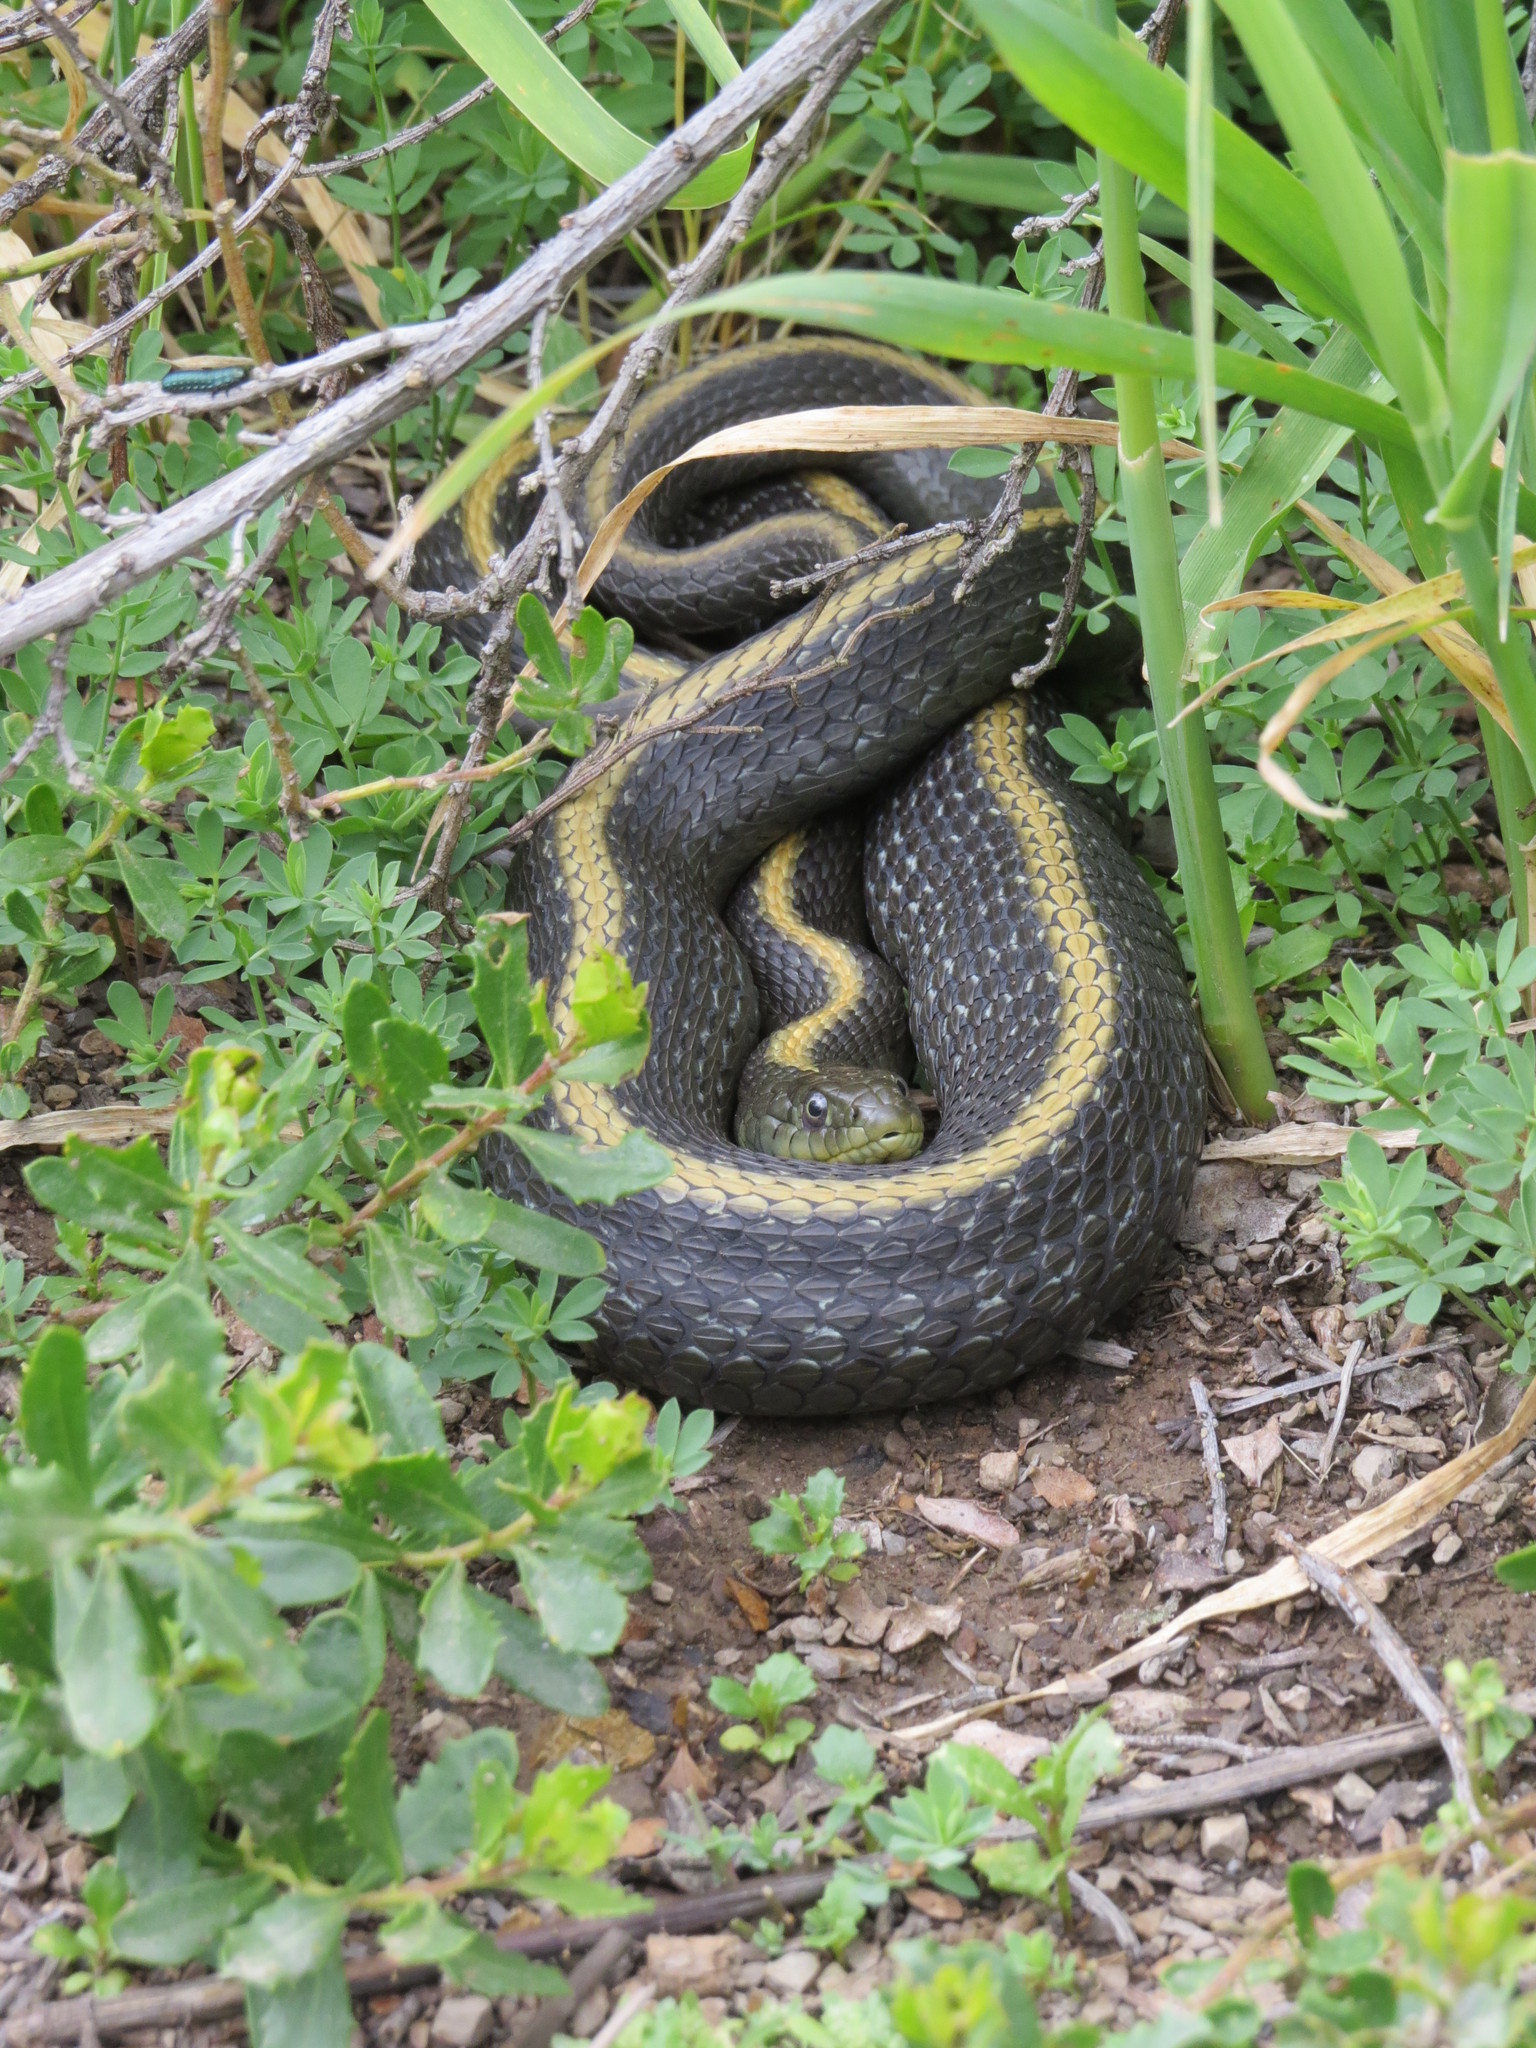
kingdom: Animalia
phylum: Chordata
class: Squamata
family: Colubridae
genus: Thamnophis
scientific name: Thamnophis atratus
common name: Pacific coast aquatic garter snake
